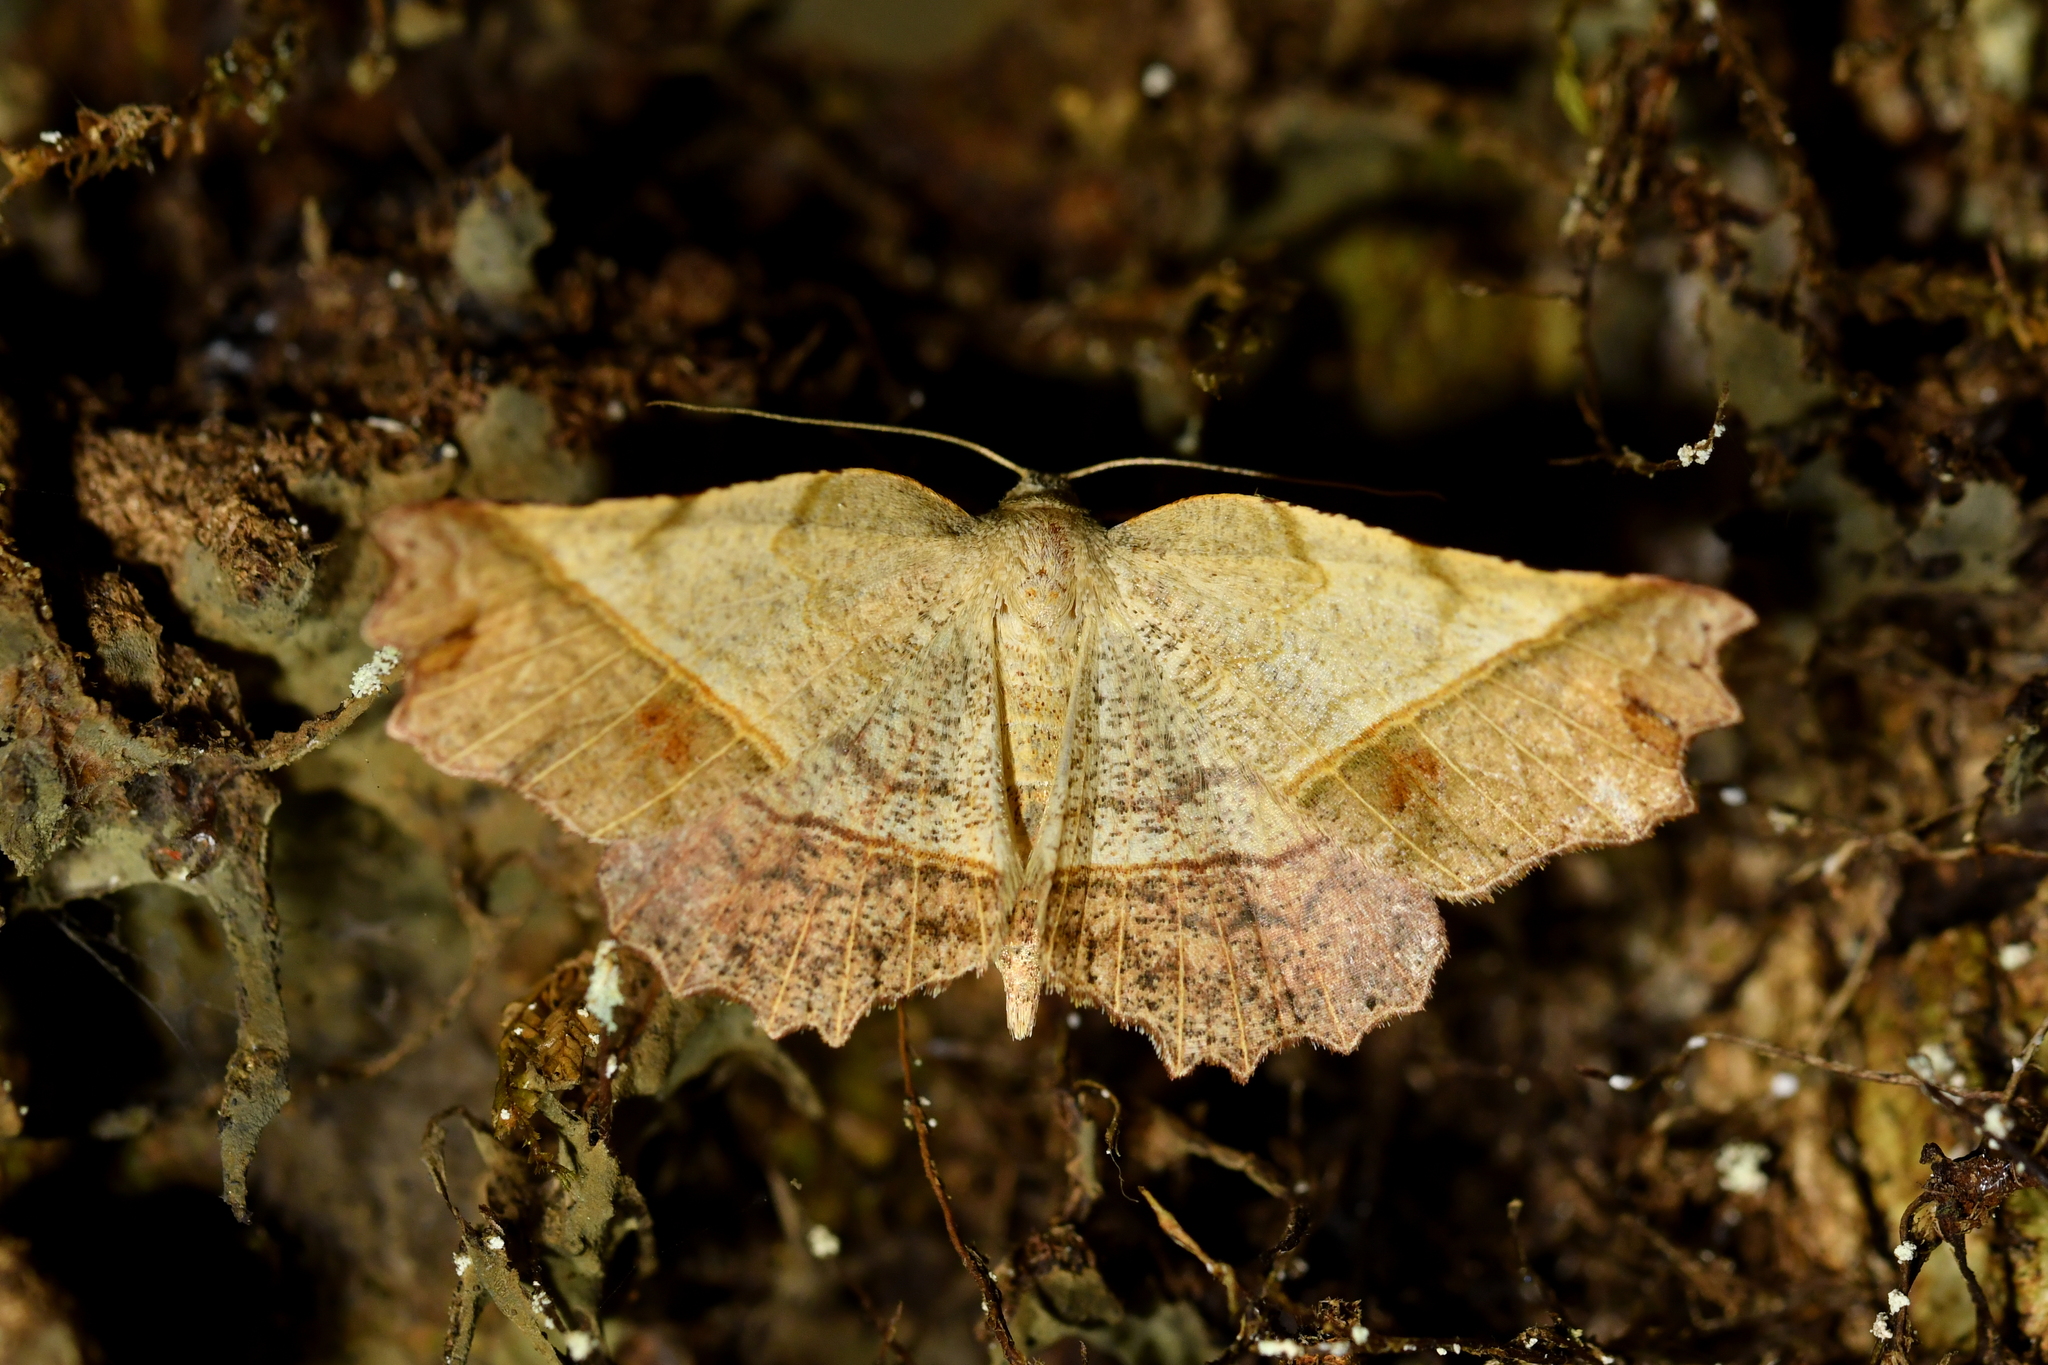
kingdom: Animalia
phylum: Arthropoda
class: Insecta
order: Lepidoptera
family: Geometridae
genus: Ischalis
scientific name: Ischalis gallaria
